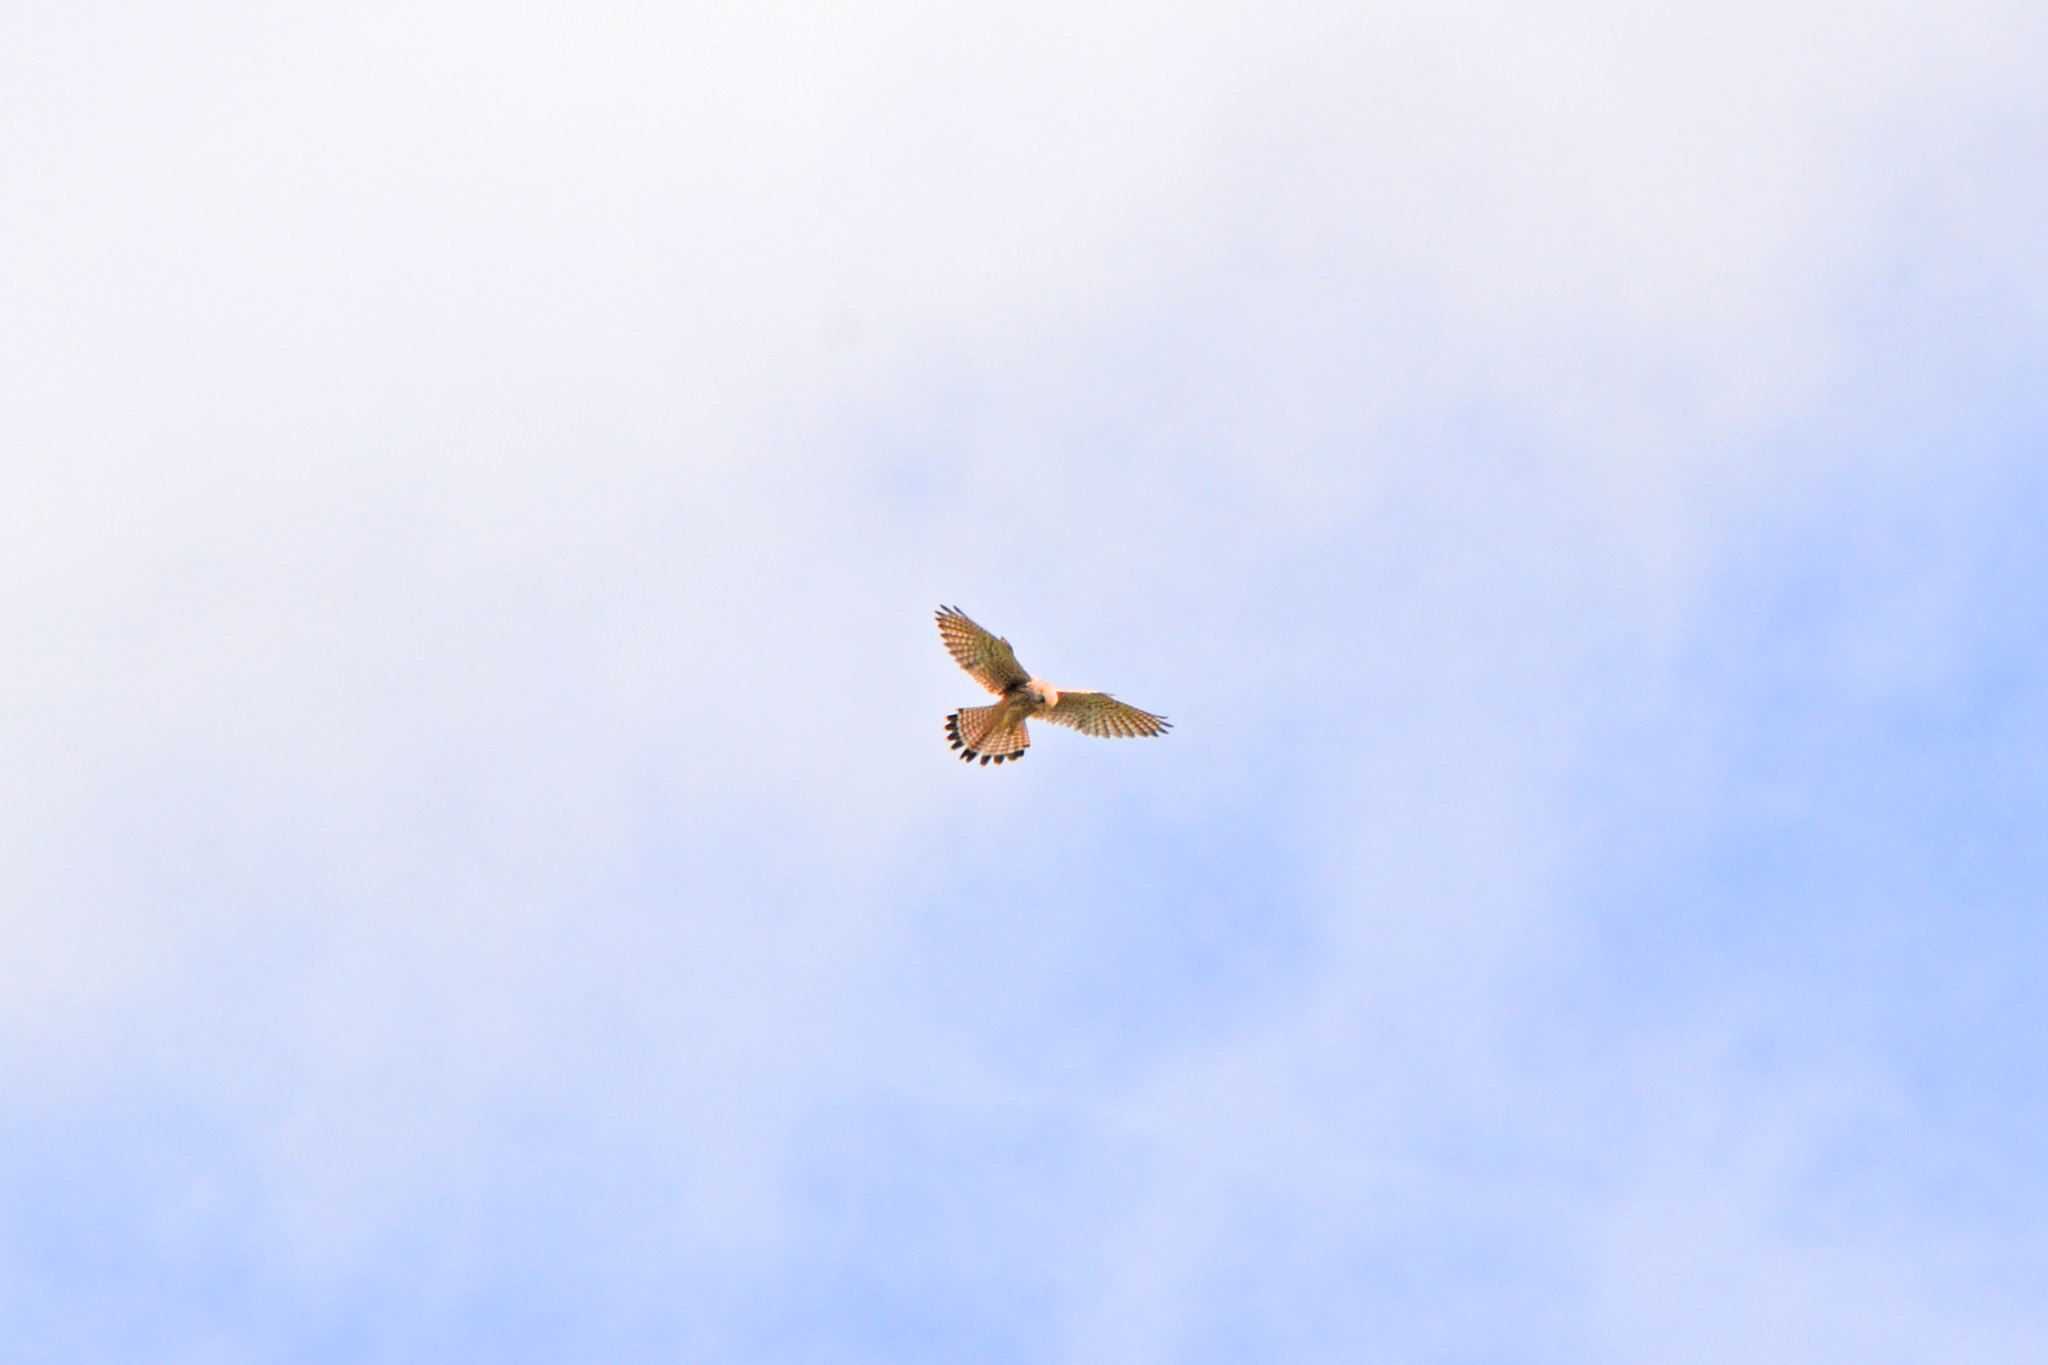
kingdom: Animalia
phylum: Chordata
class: Aves
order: Falconiformes
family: Falconidae
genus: Falco
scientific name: Falco tinnunculus
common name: Common kestrel
